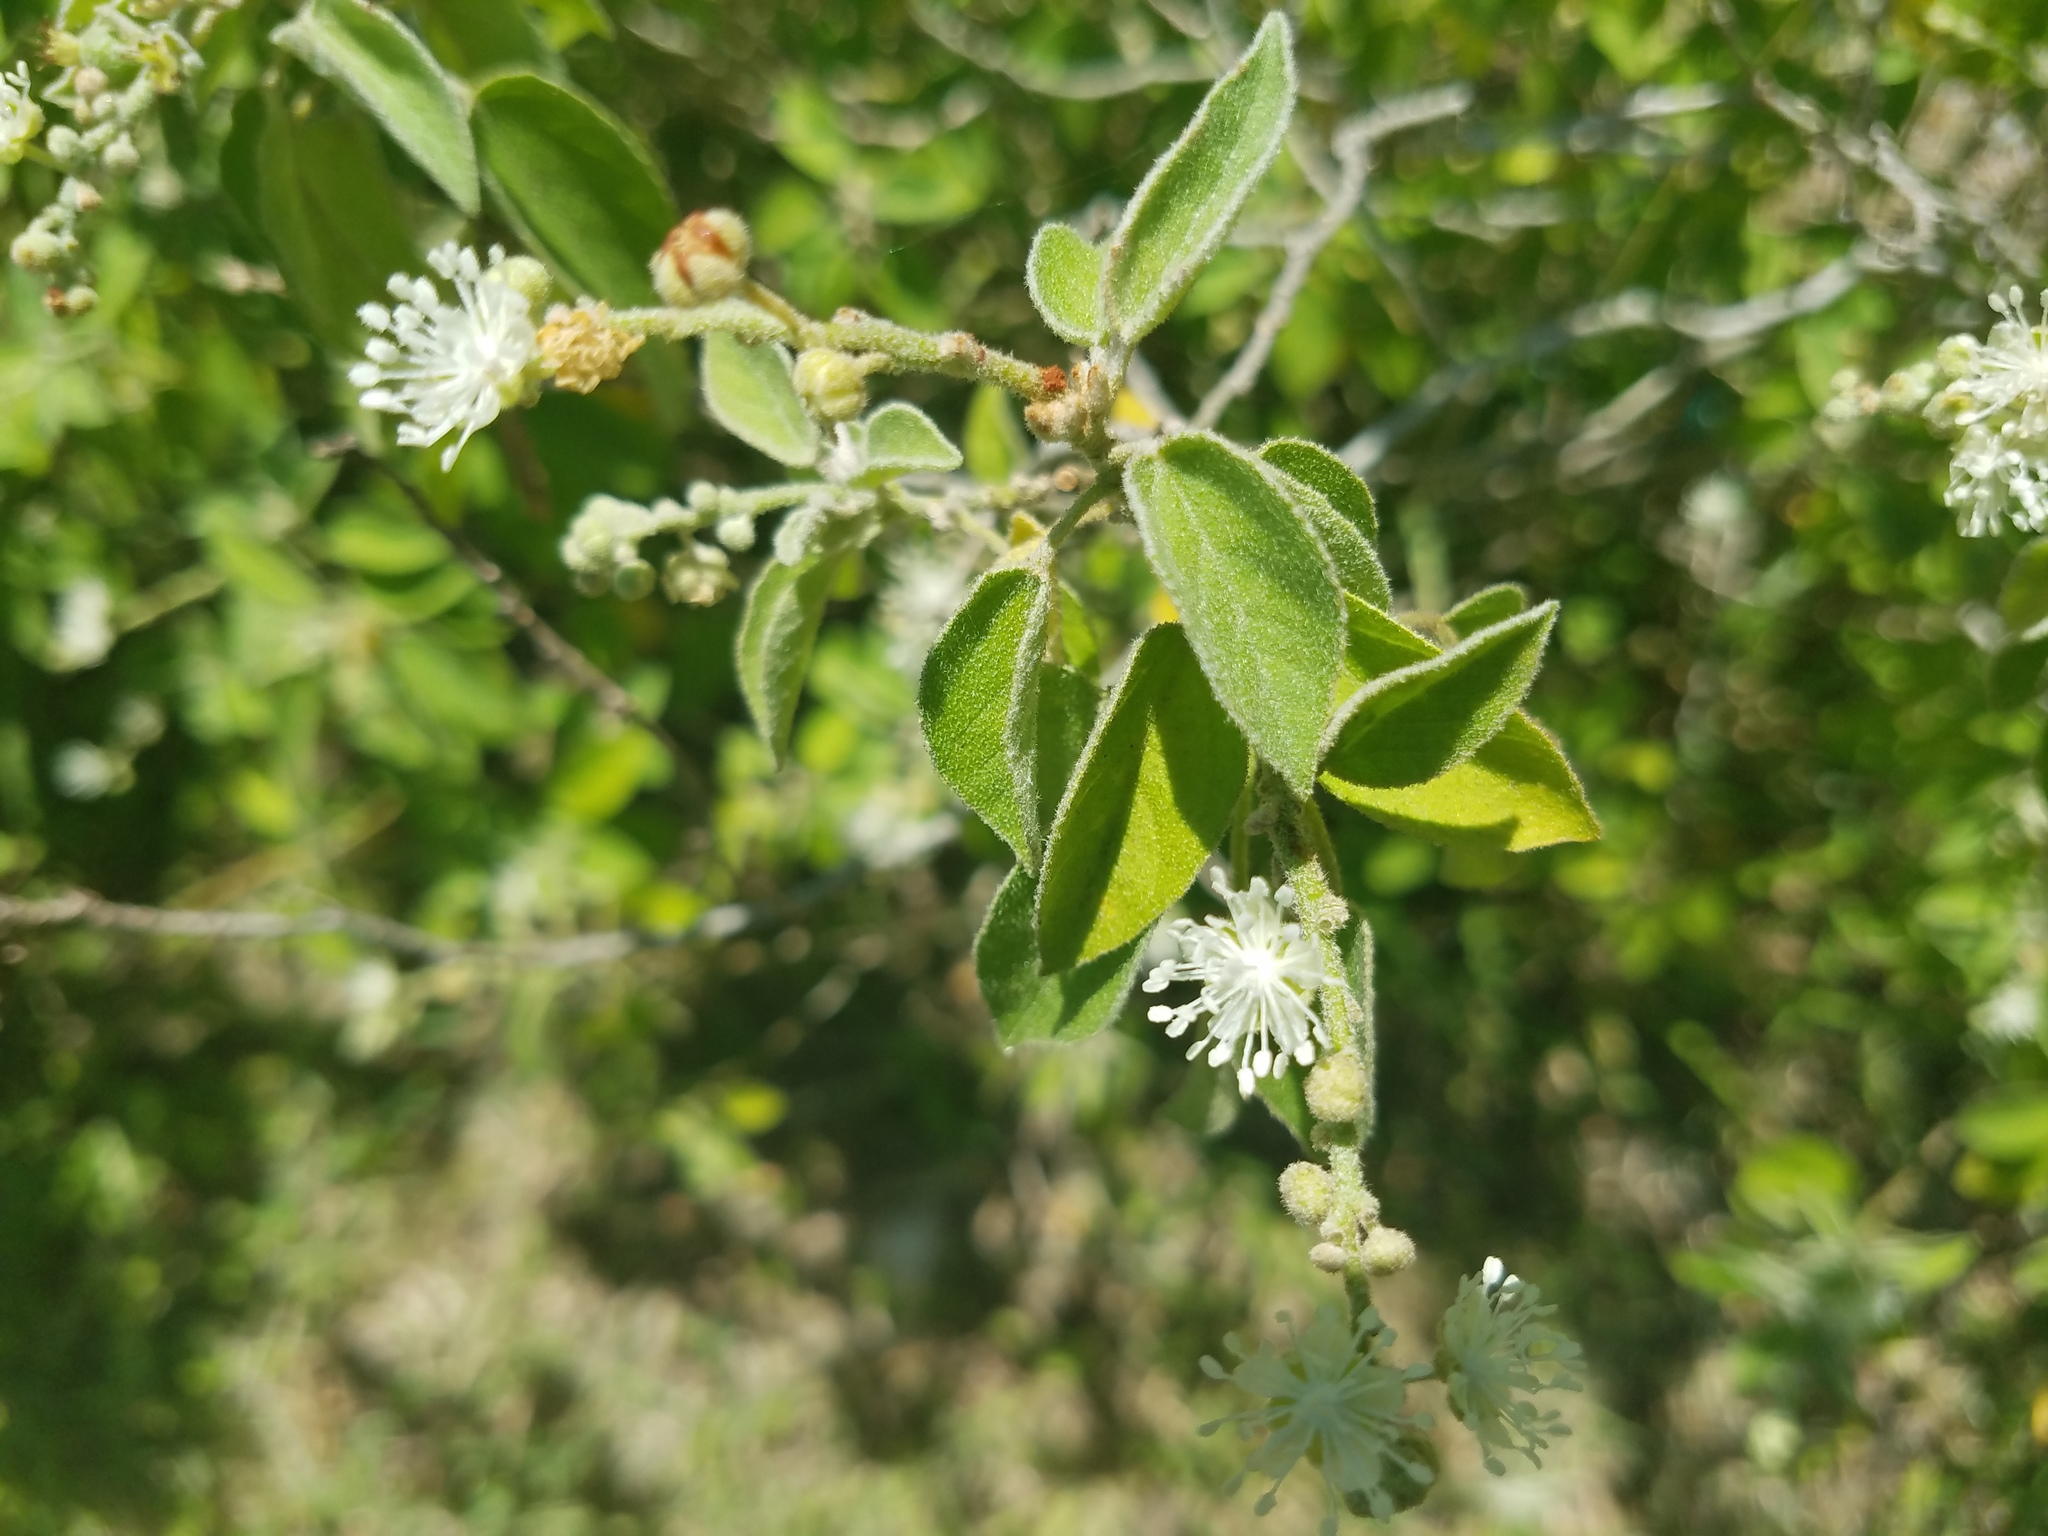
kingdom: Plantae
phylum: Tracheophyta
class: Magnoliopsida
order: Malpighiales
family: Euphorbiaceae
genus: Croton
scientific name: Croton humilis
